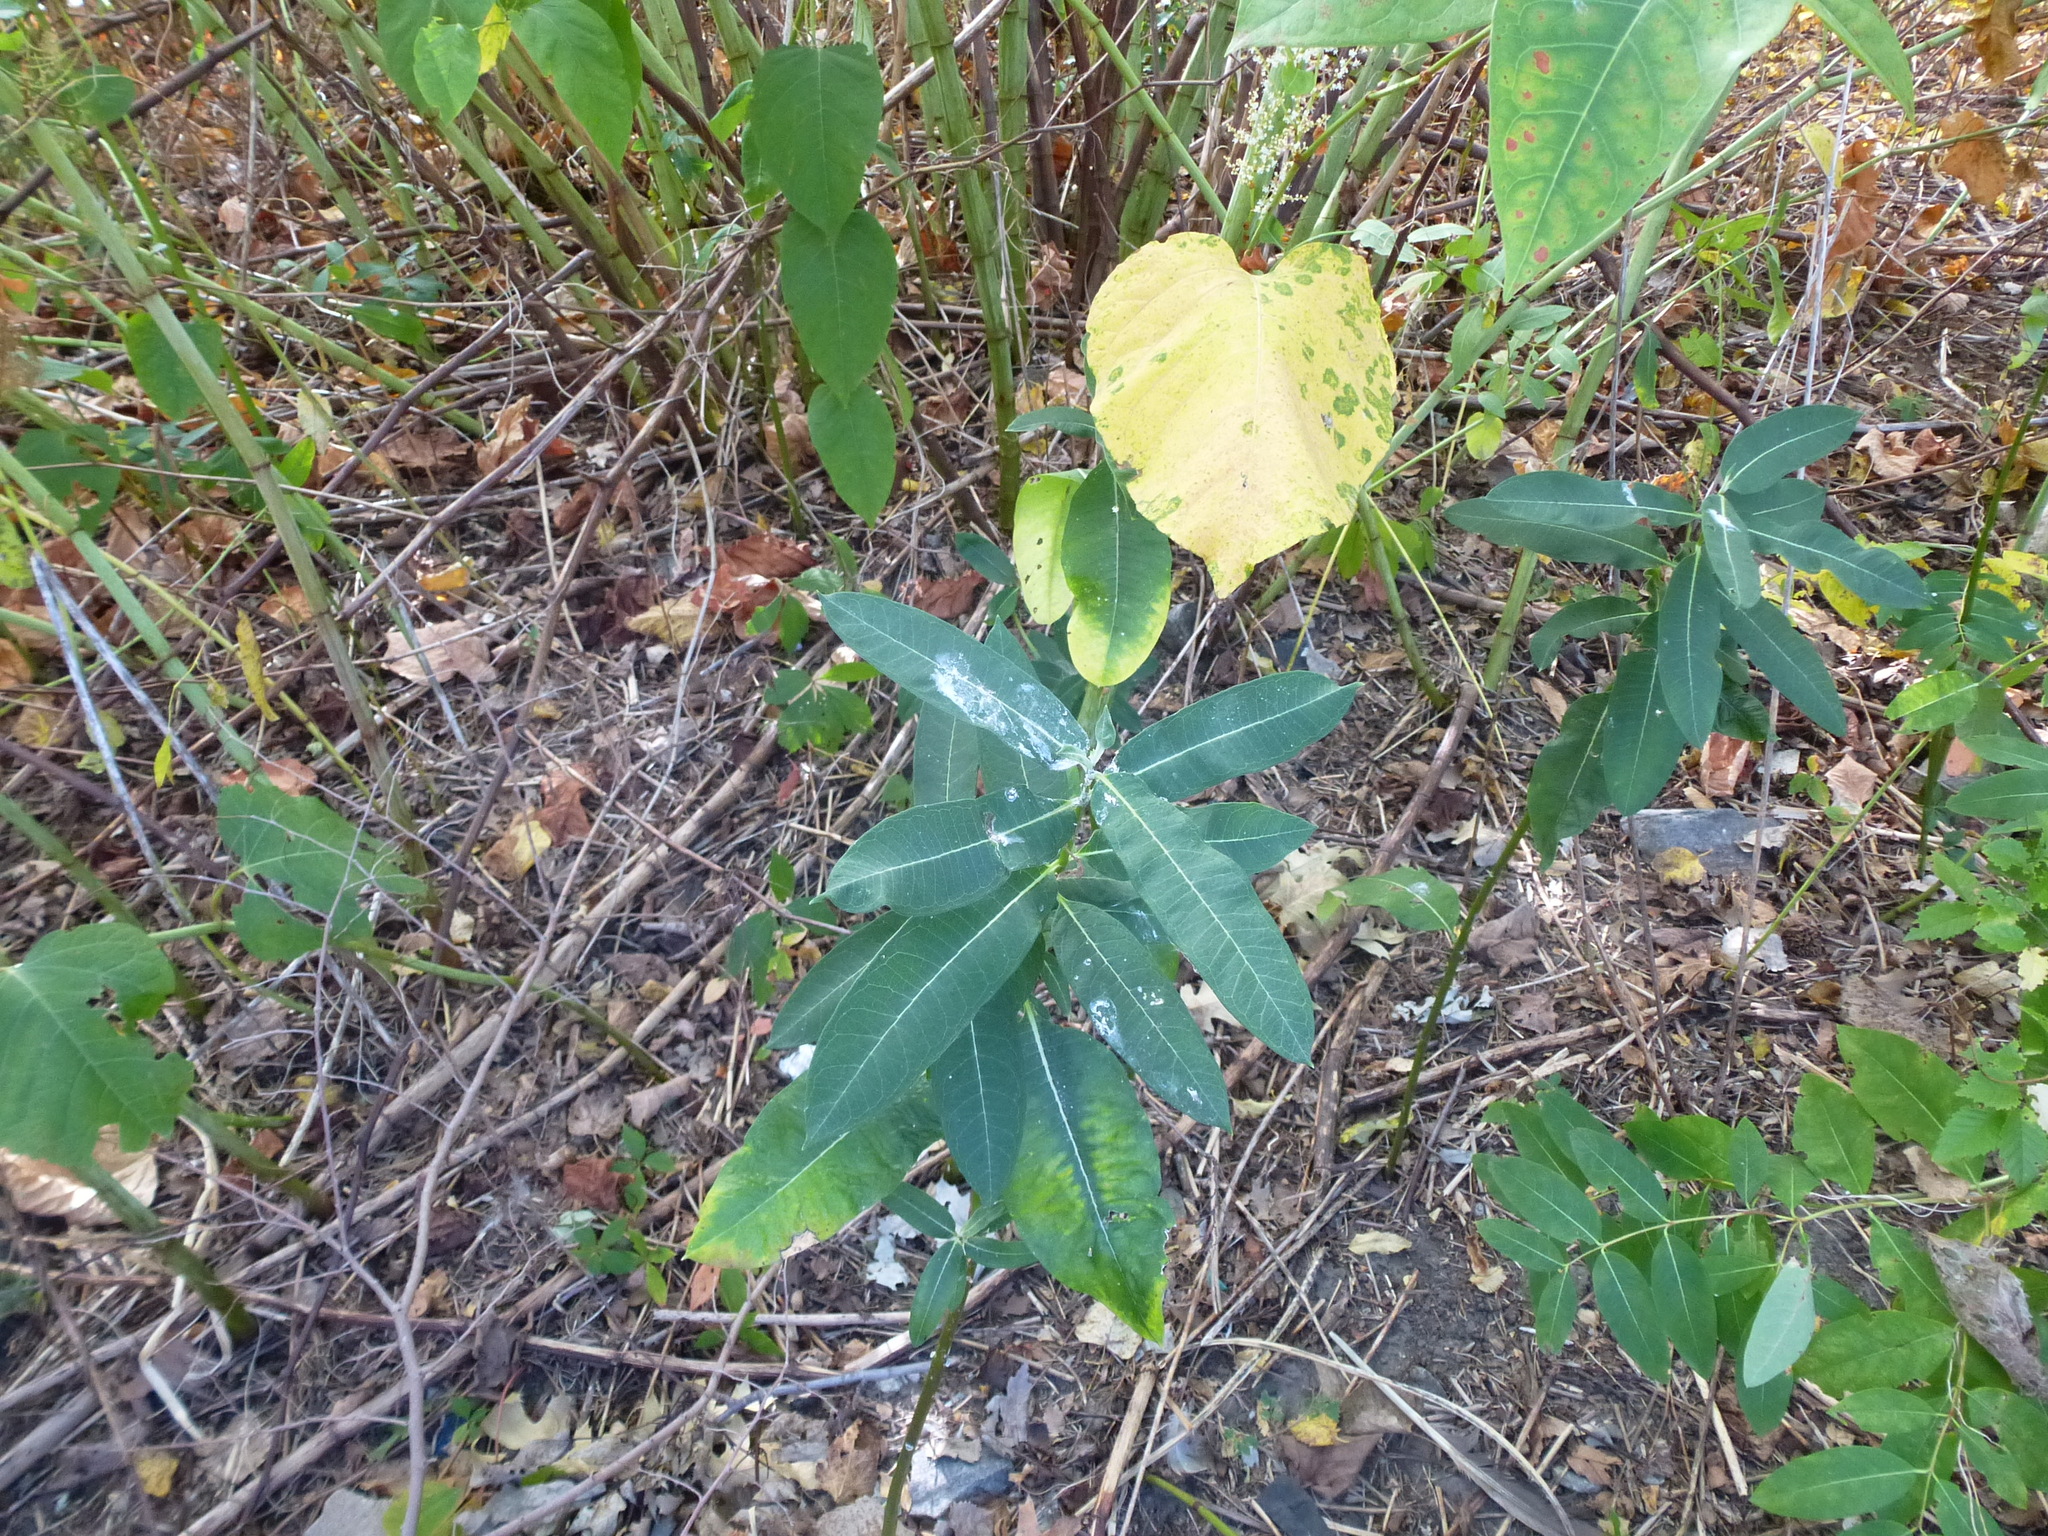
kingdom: Plantae
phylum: Tracheophyta
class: Magnoliopsida
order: Gentianales
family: Apocynaceae
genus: Asclepias
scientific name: Asclepias syriaca
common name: Common milkweed
